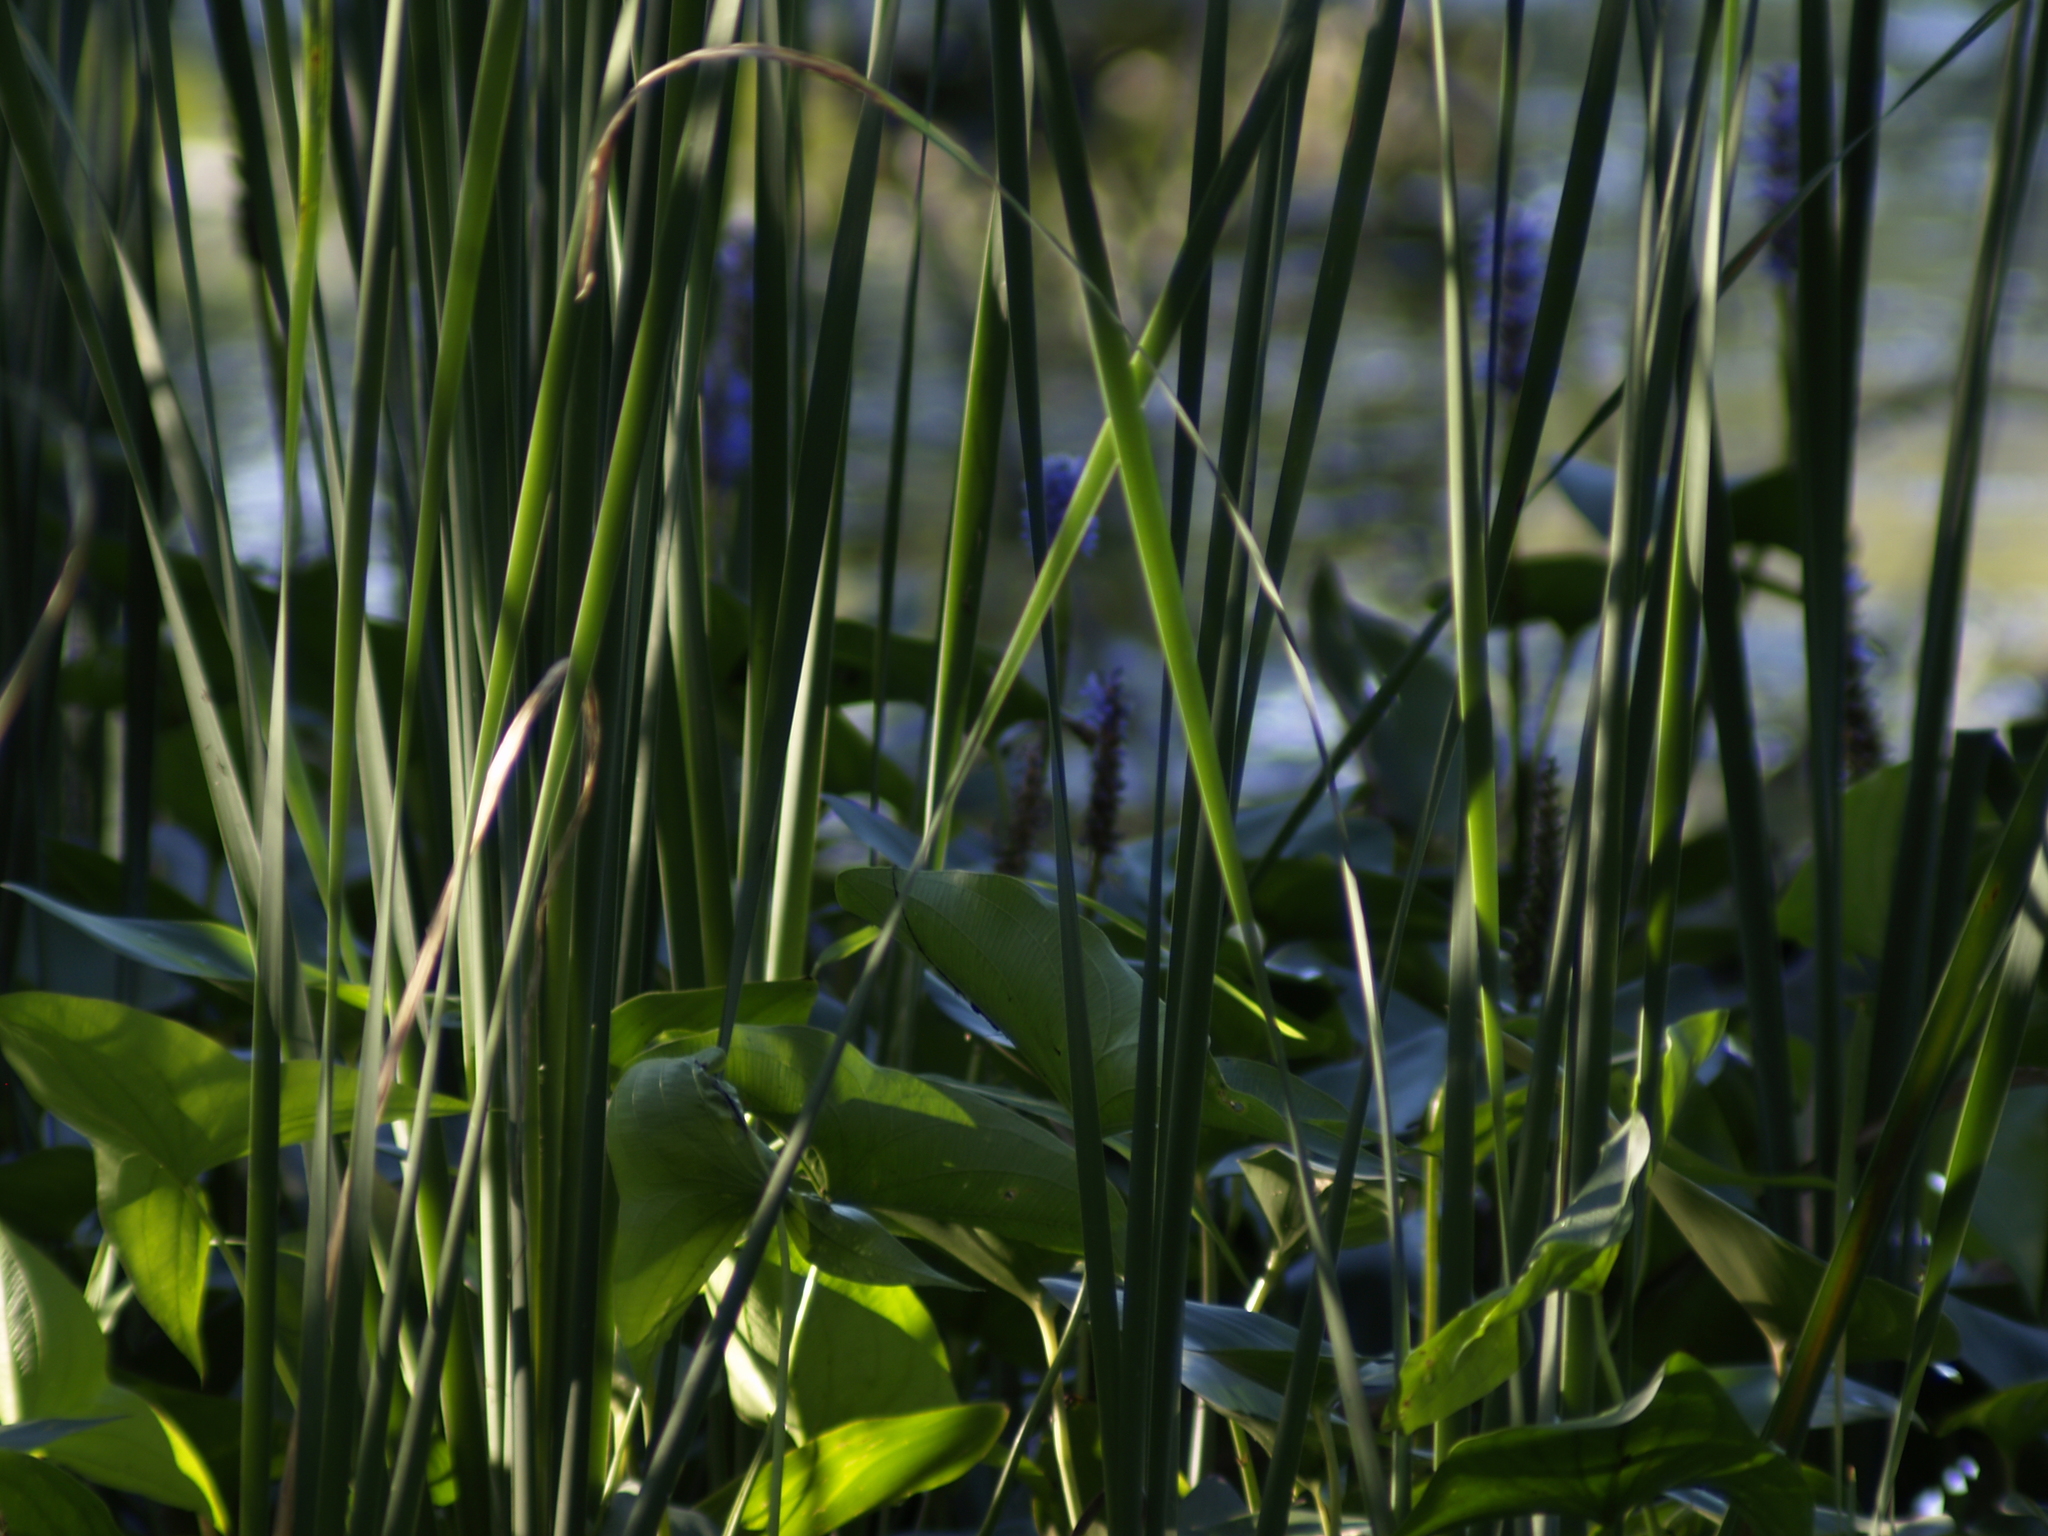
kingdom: Plantae
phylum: Tracheophyta
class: Liliopsida
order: Commelinales
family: Pontederiaceae
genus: Pontederia
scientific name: Pontederia cordata
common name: Pickerelweed
